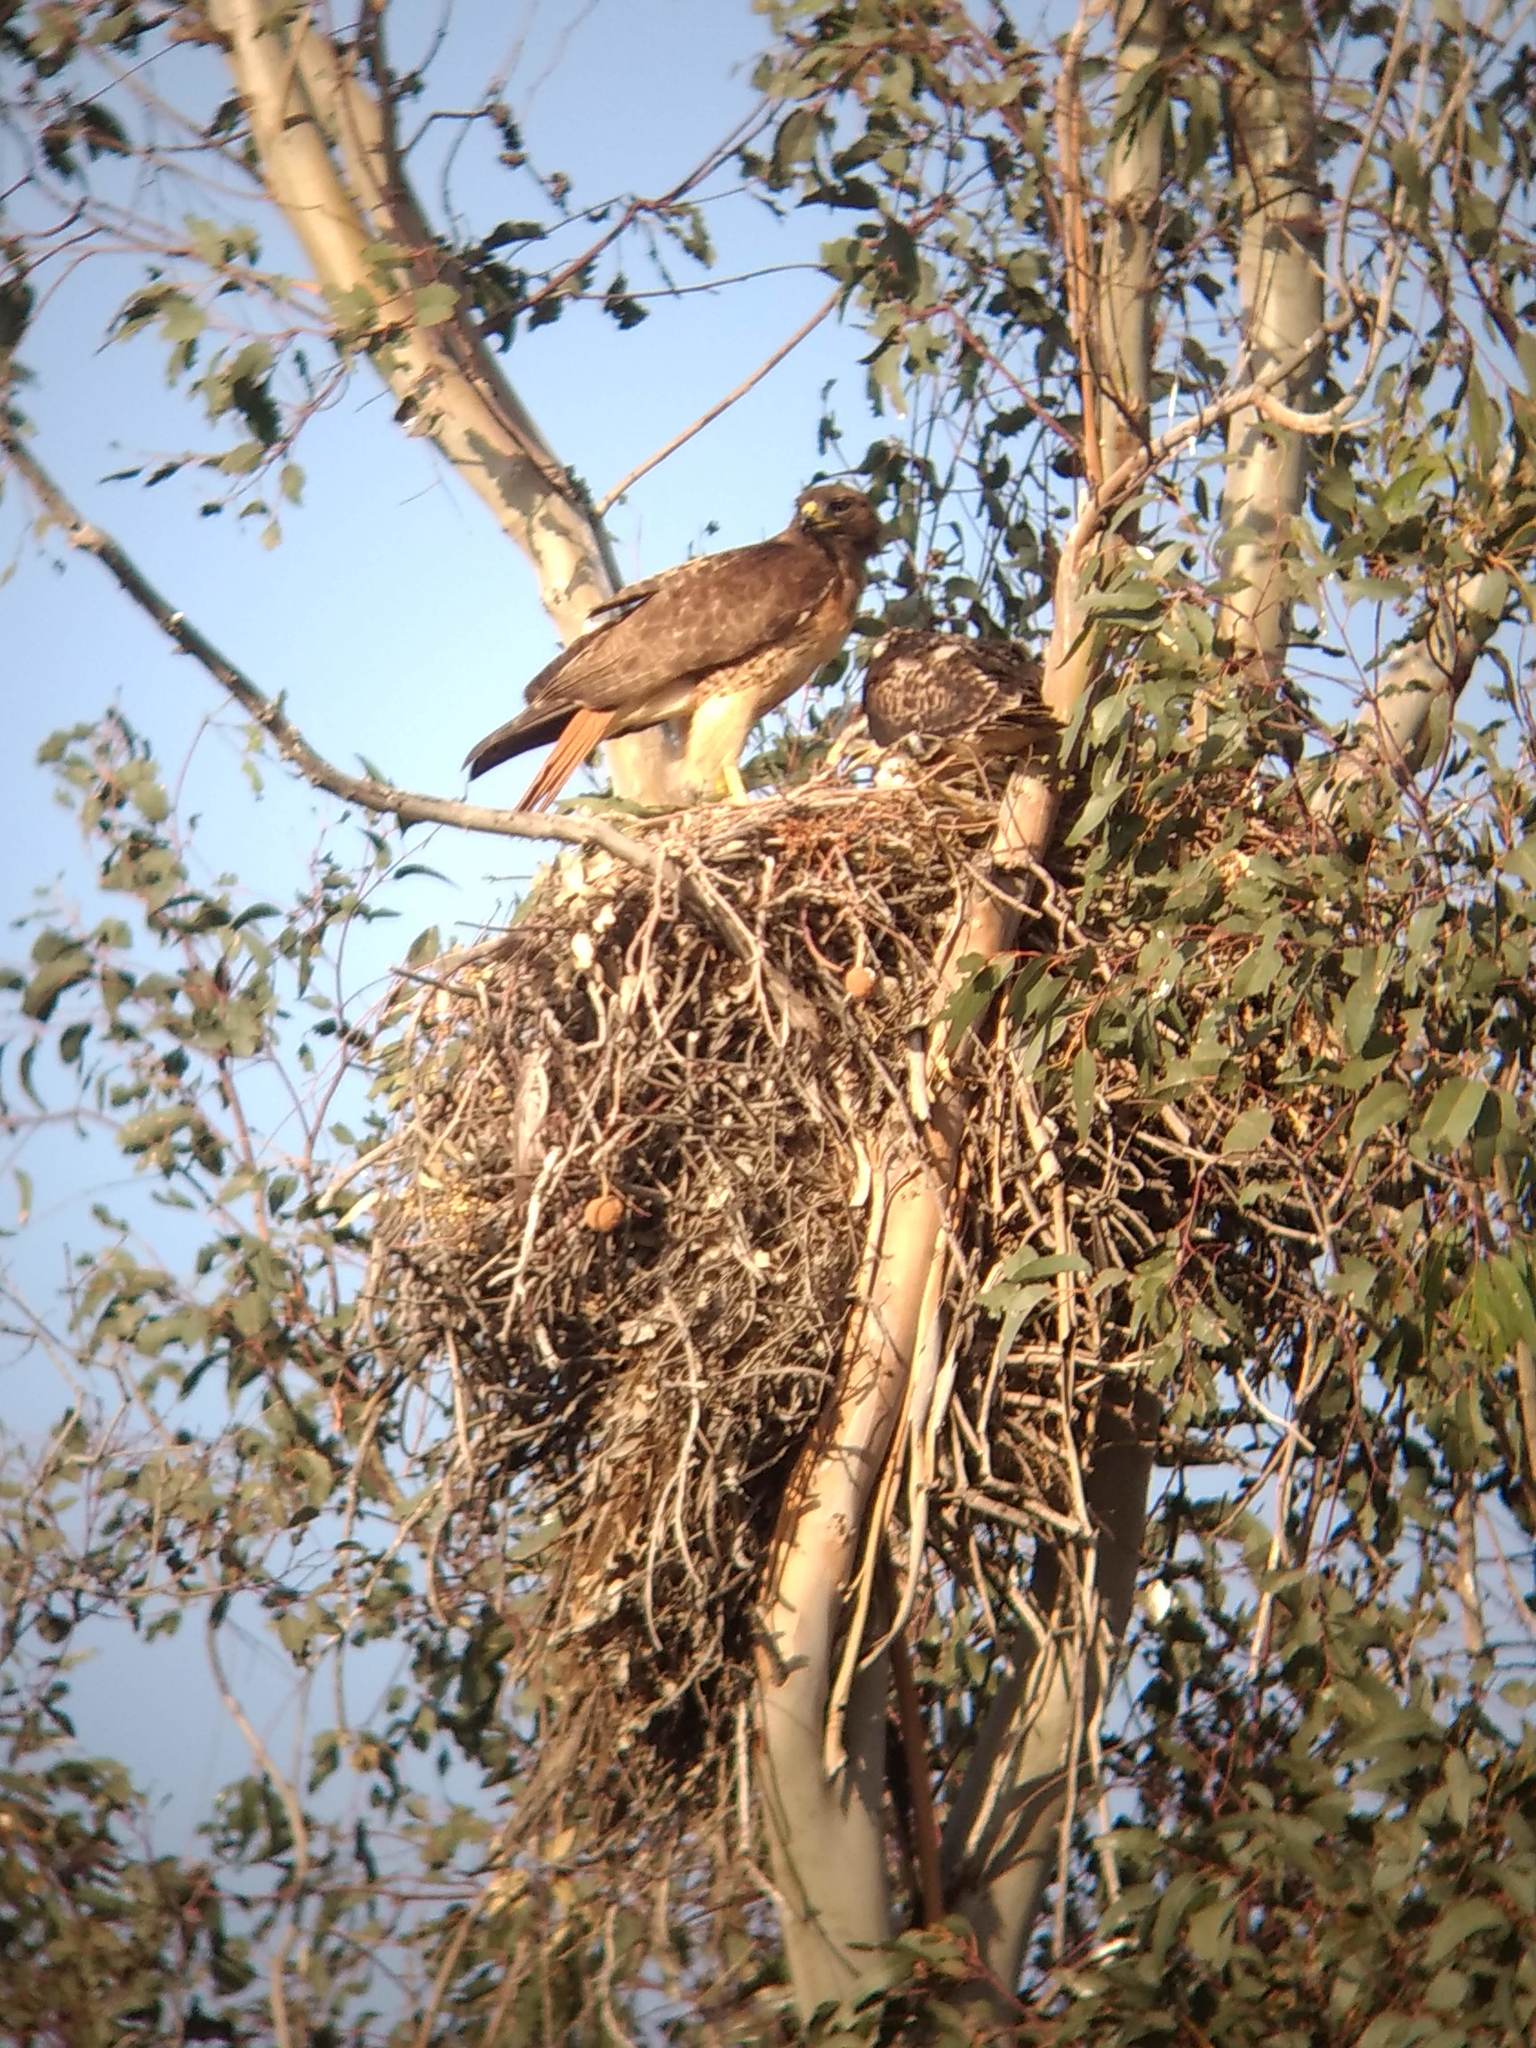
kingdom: Animalia
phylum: Chordata
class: Aves
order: Accipitriformes
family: Accipitridae
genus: Buteo
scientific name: Buteo jamaicensis
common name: Red-tailed hawk
